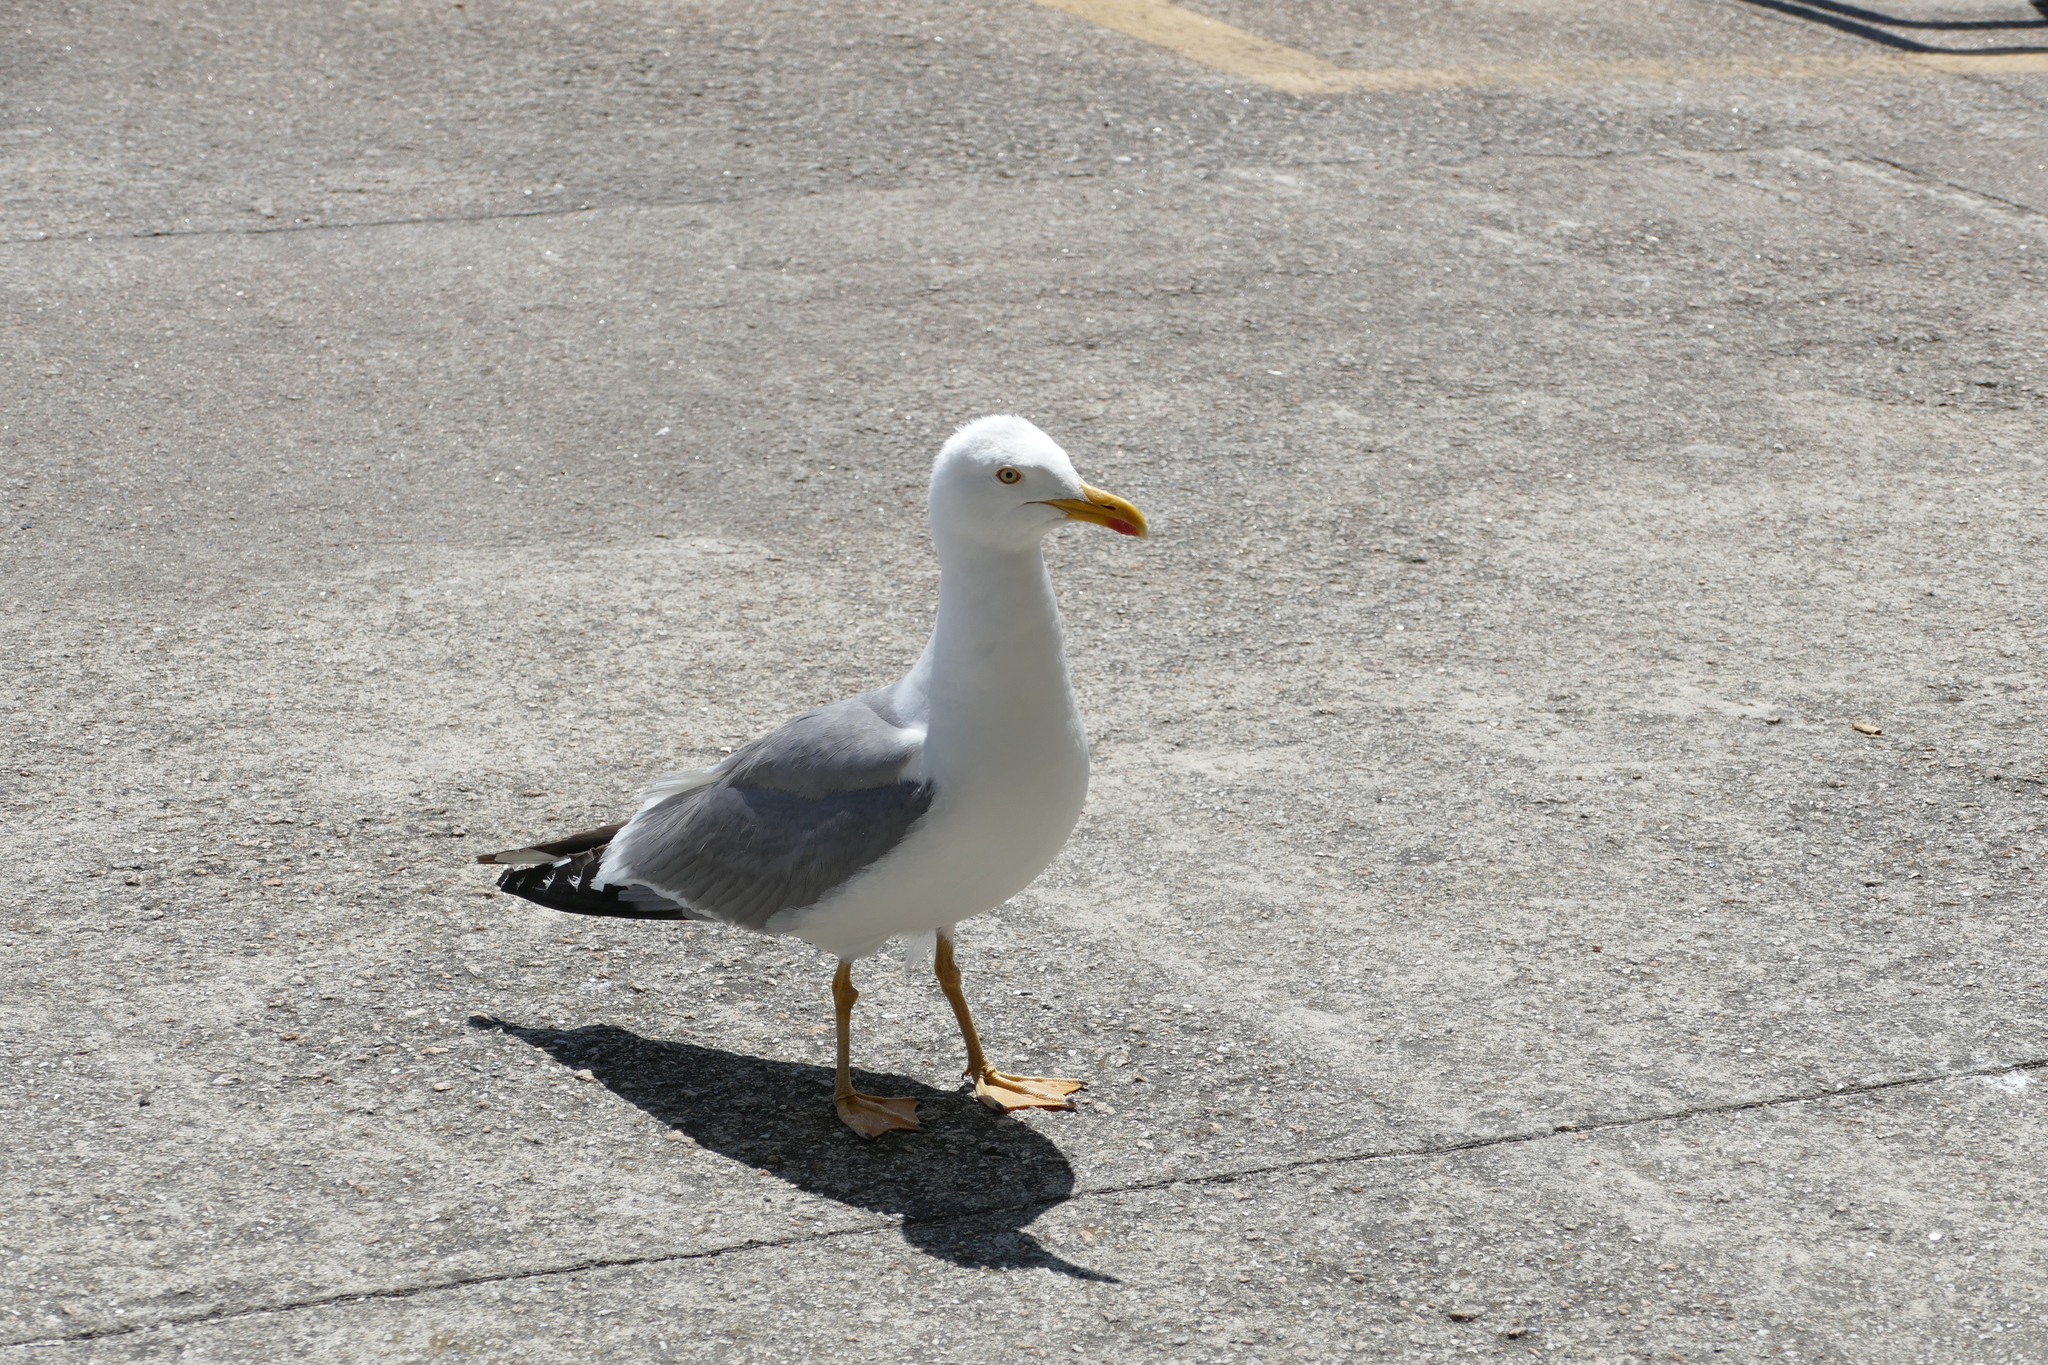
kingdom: Animalia
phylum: Chordata
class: Aves
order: Charadriiformes
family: Laridae
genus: Larus
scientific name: Larus michahellis
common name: Yellow-legged gull
